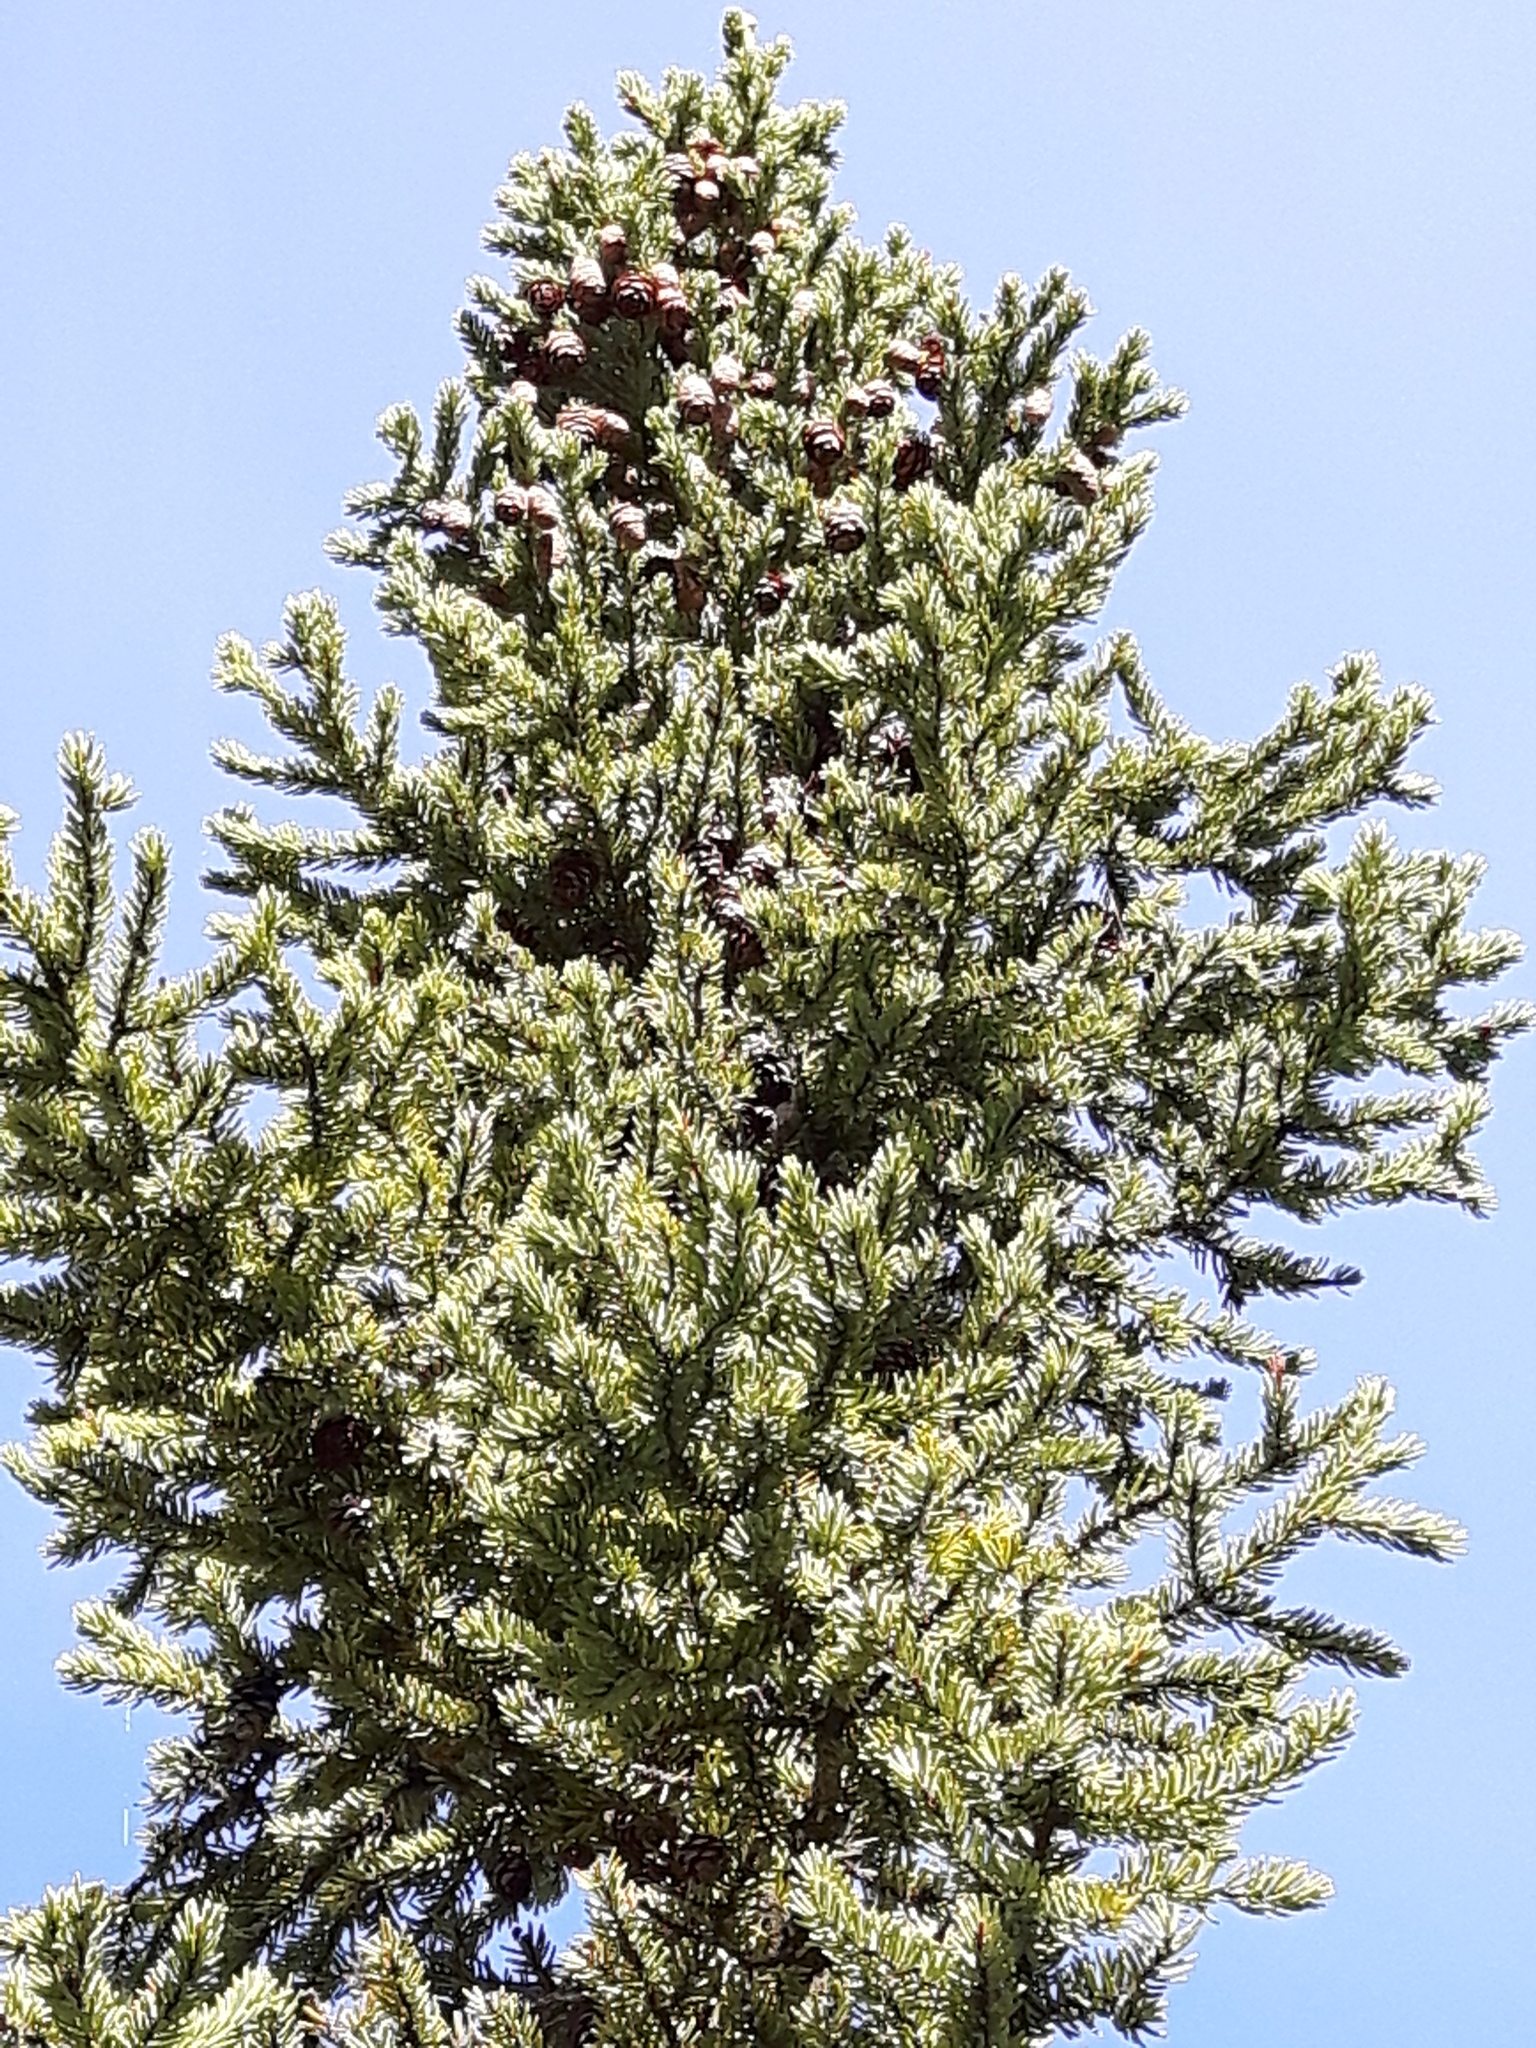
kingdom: Plantae
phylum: Tracheophyta
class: Pinopsida
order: Pinales
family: Pinaceae
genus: Picea
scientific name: Picea mariana
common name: Black spruce
